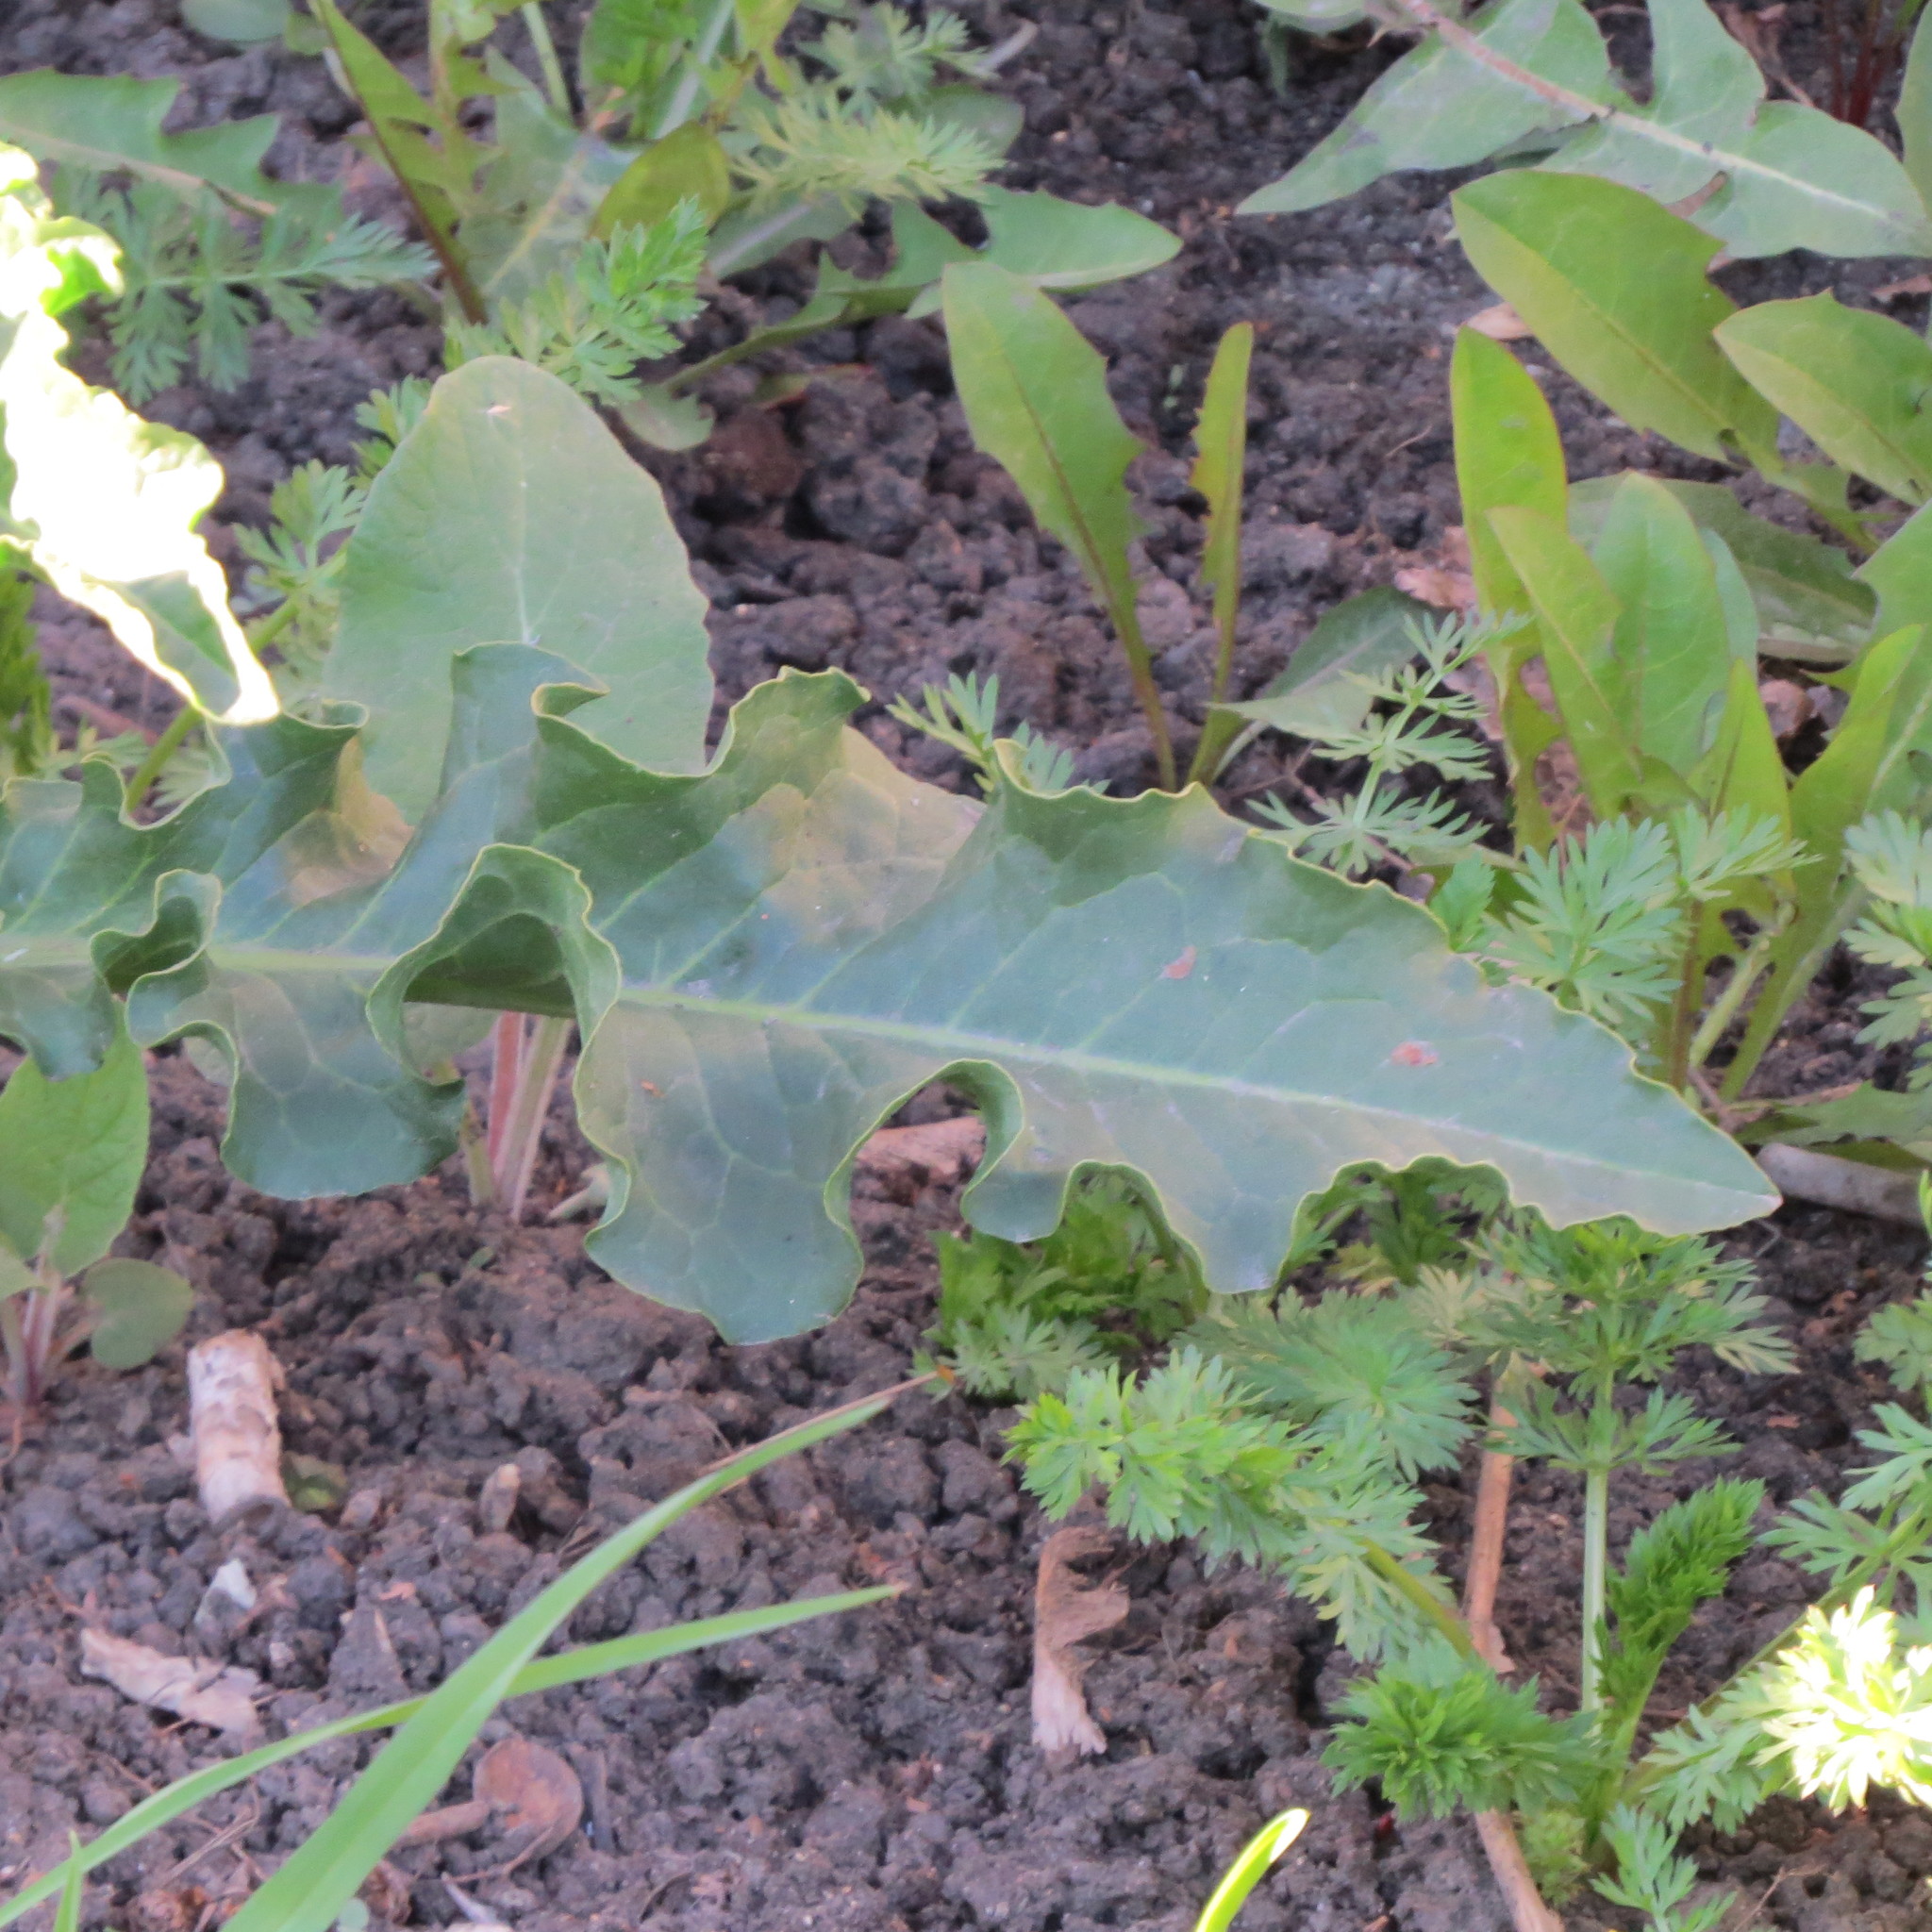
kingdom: Plantae
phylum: Tracheophyta
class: Magnoliopsida
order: Caryophyllales
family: Polygonaceae
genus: Rumex
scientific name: Rumex
